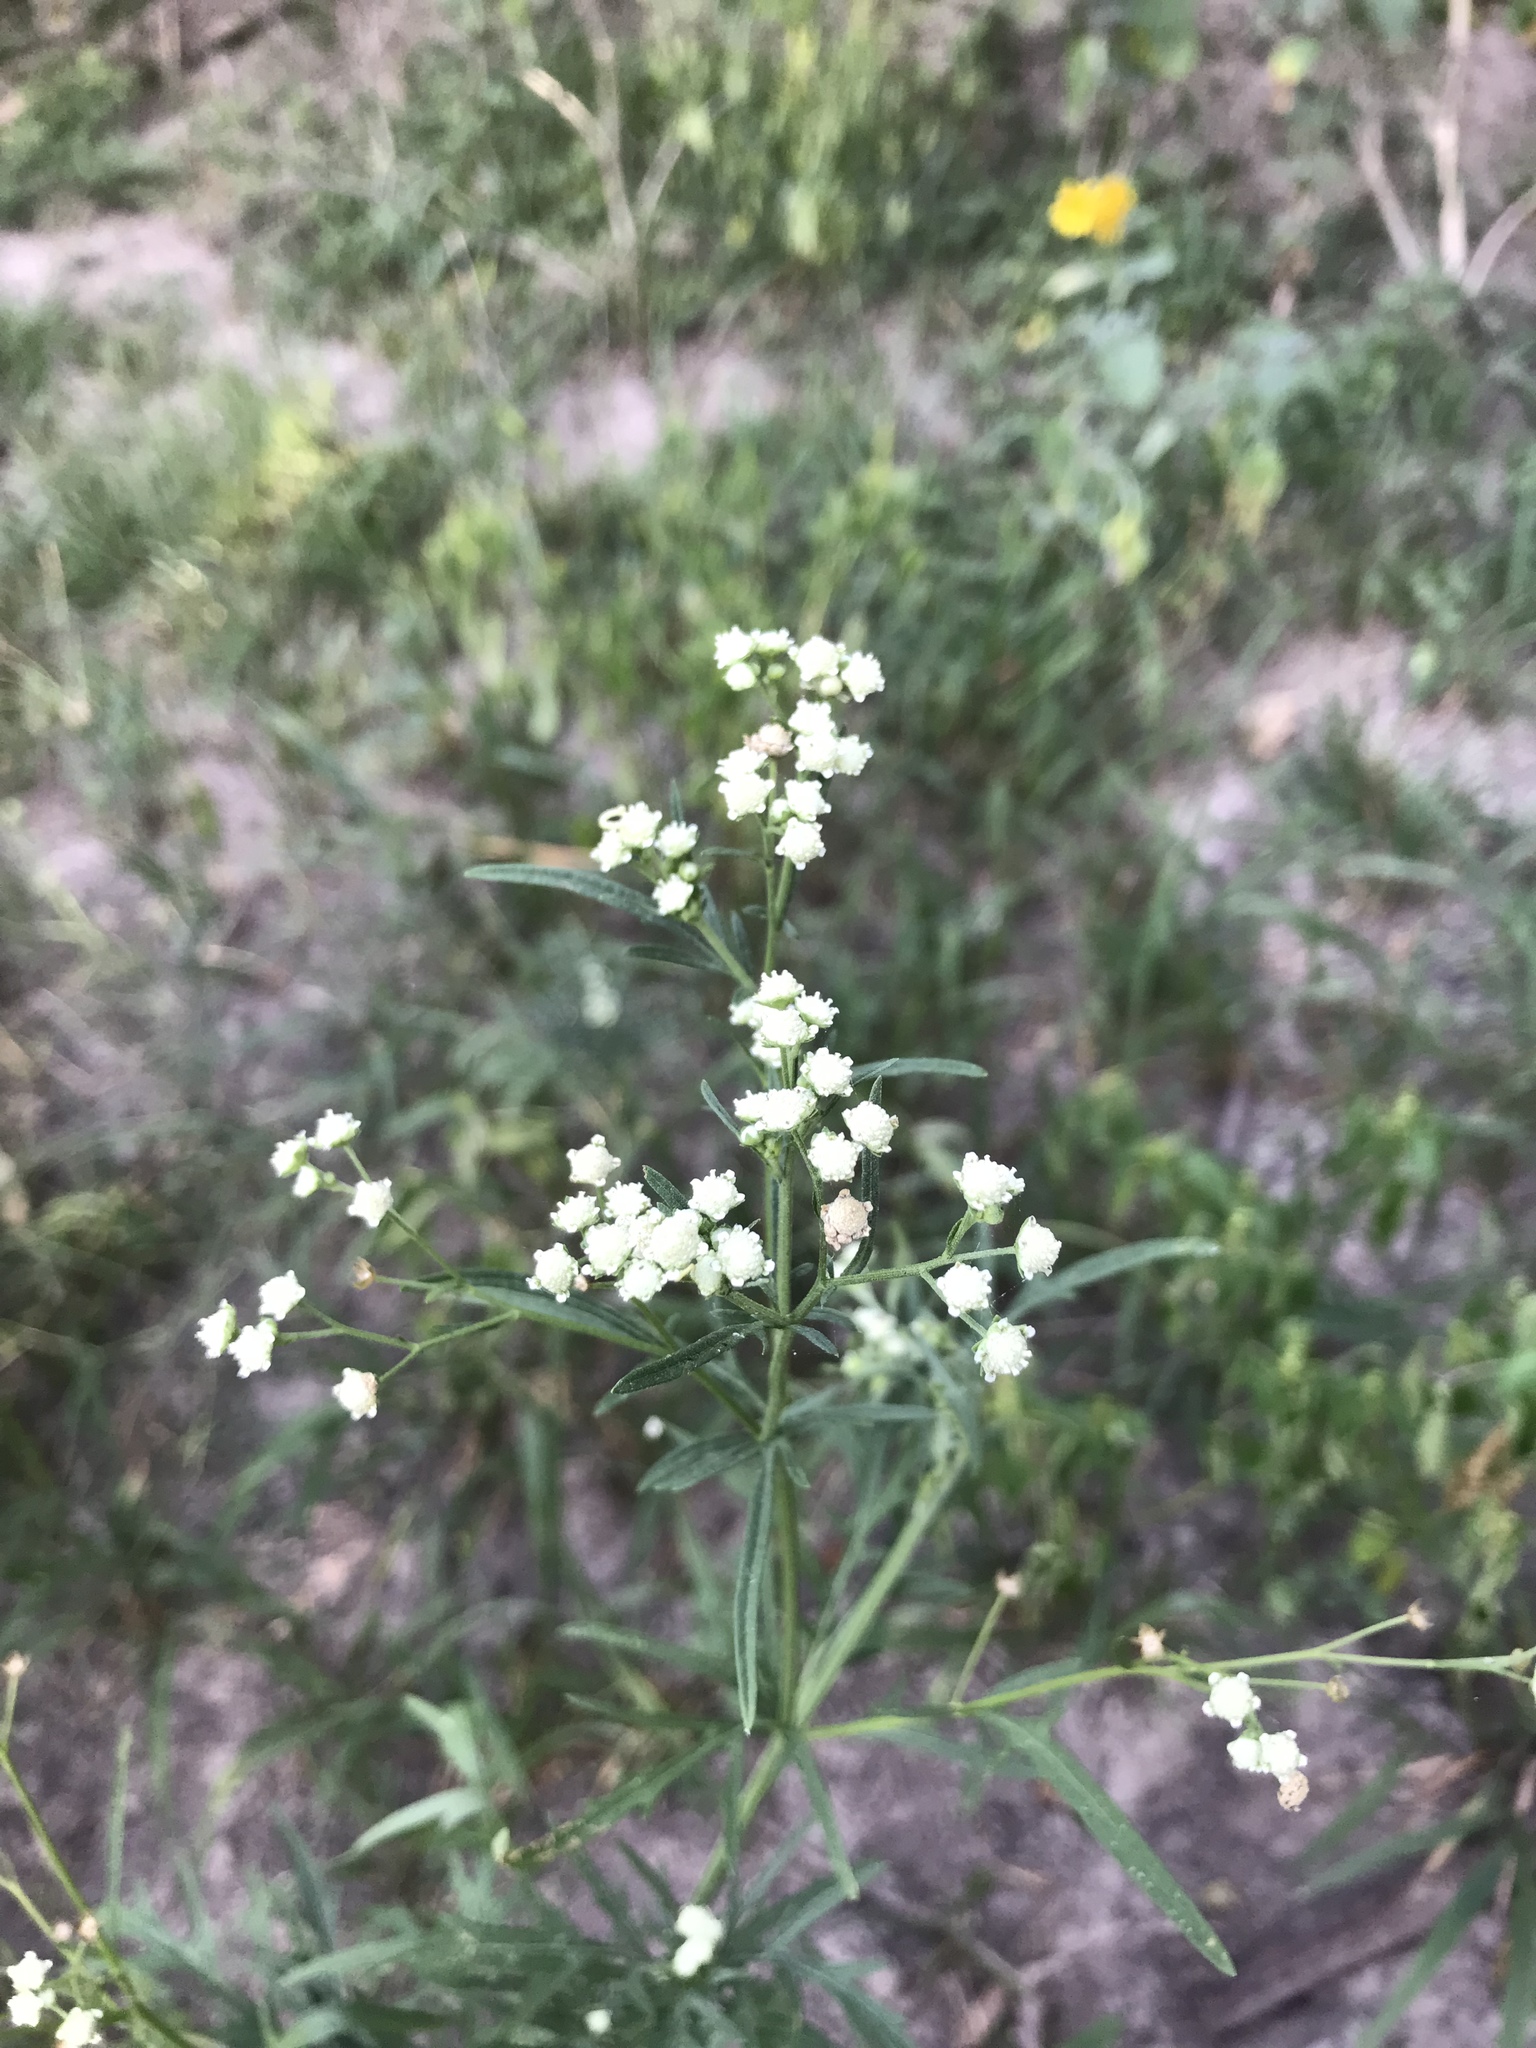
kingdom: Plantae
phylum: Tracheophyta
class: Magnoliopsida
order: Asterales
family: Asteraceae
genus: Parthenium
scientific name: Parthenium hysterophorus
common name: Santa maria feverfew
